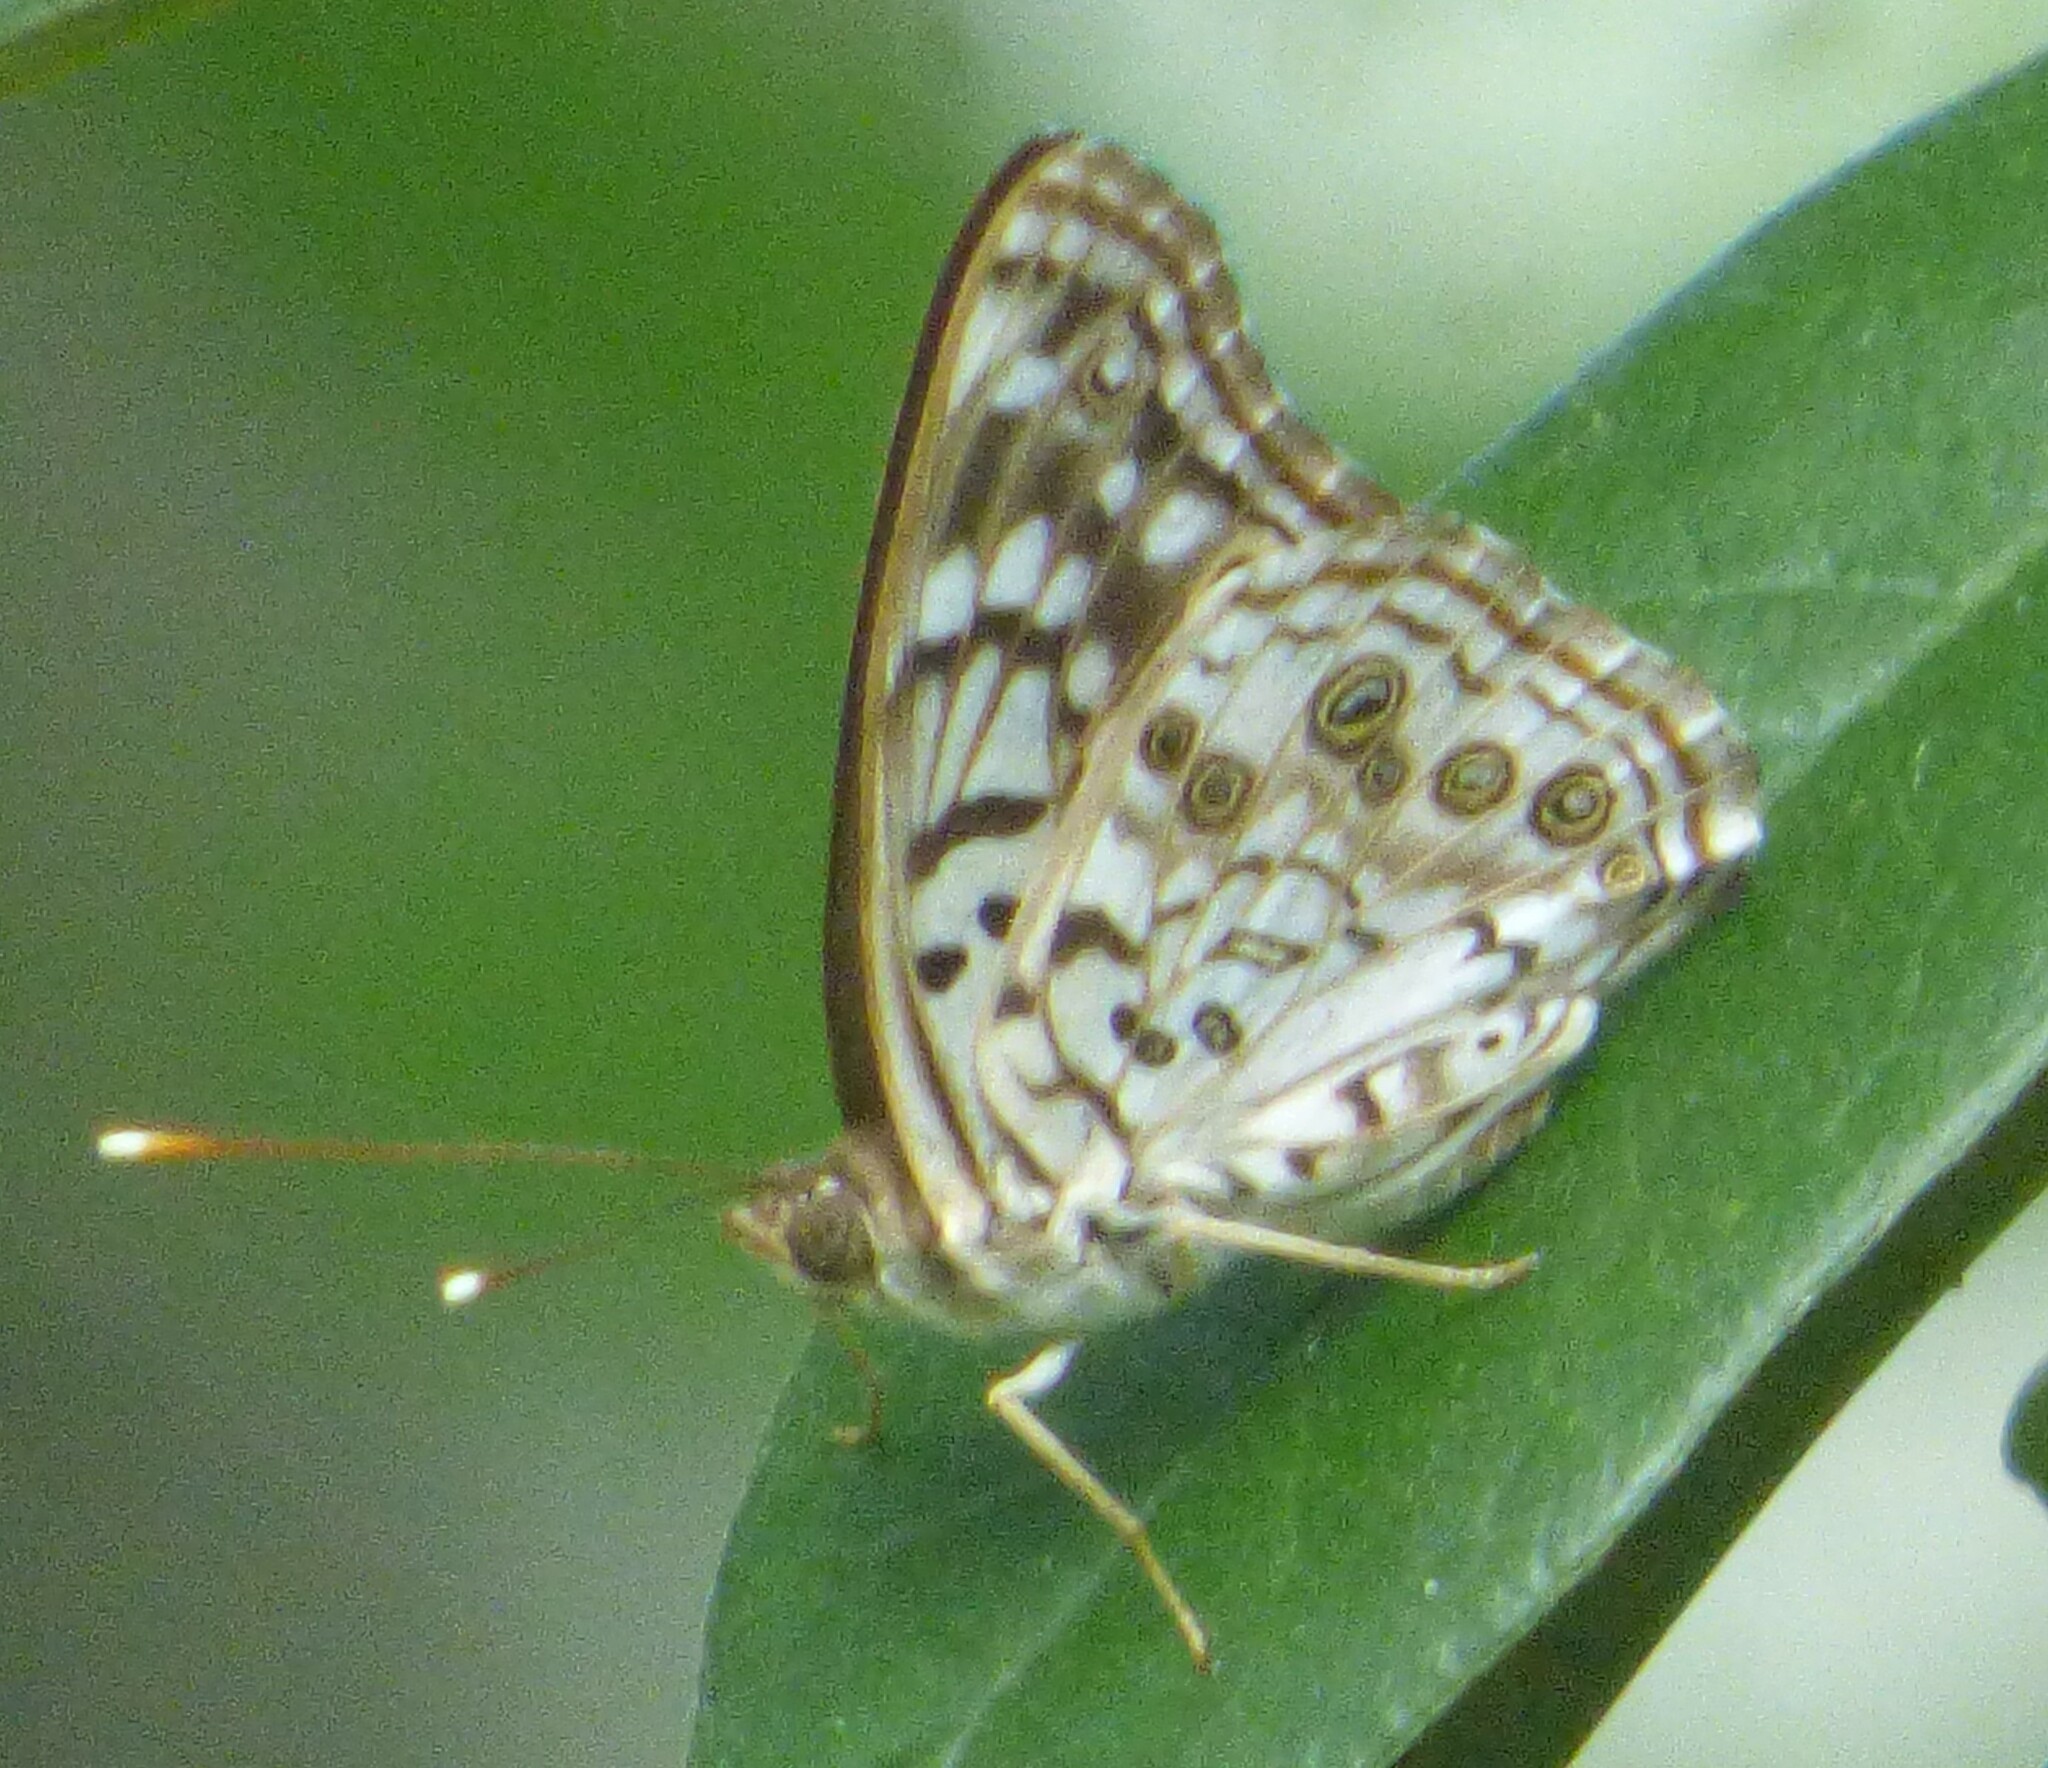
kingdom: Animalia
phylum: Arthropoda
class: Insecta
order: Lepidoptera
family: Nymphalidae
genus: Asterocampa
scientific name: Asterocampa celtis
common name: Hackberry emperor
